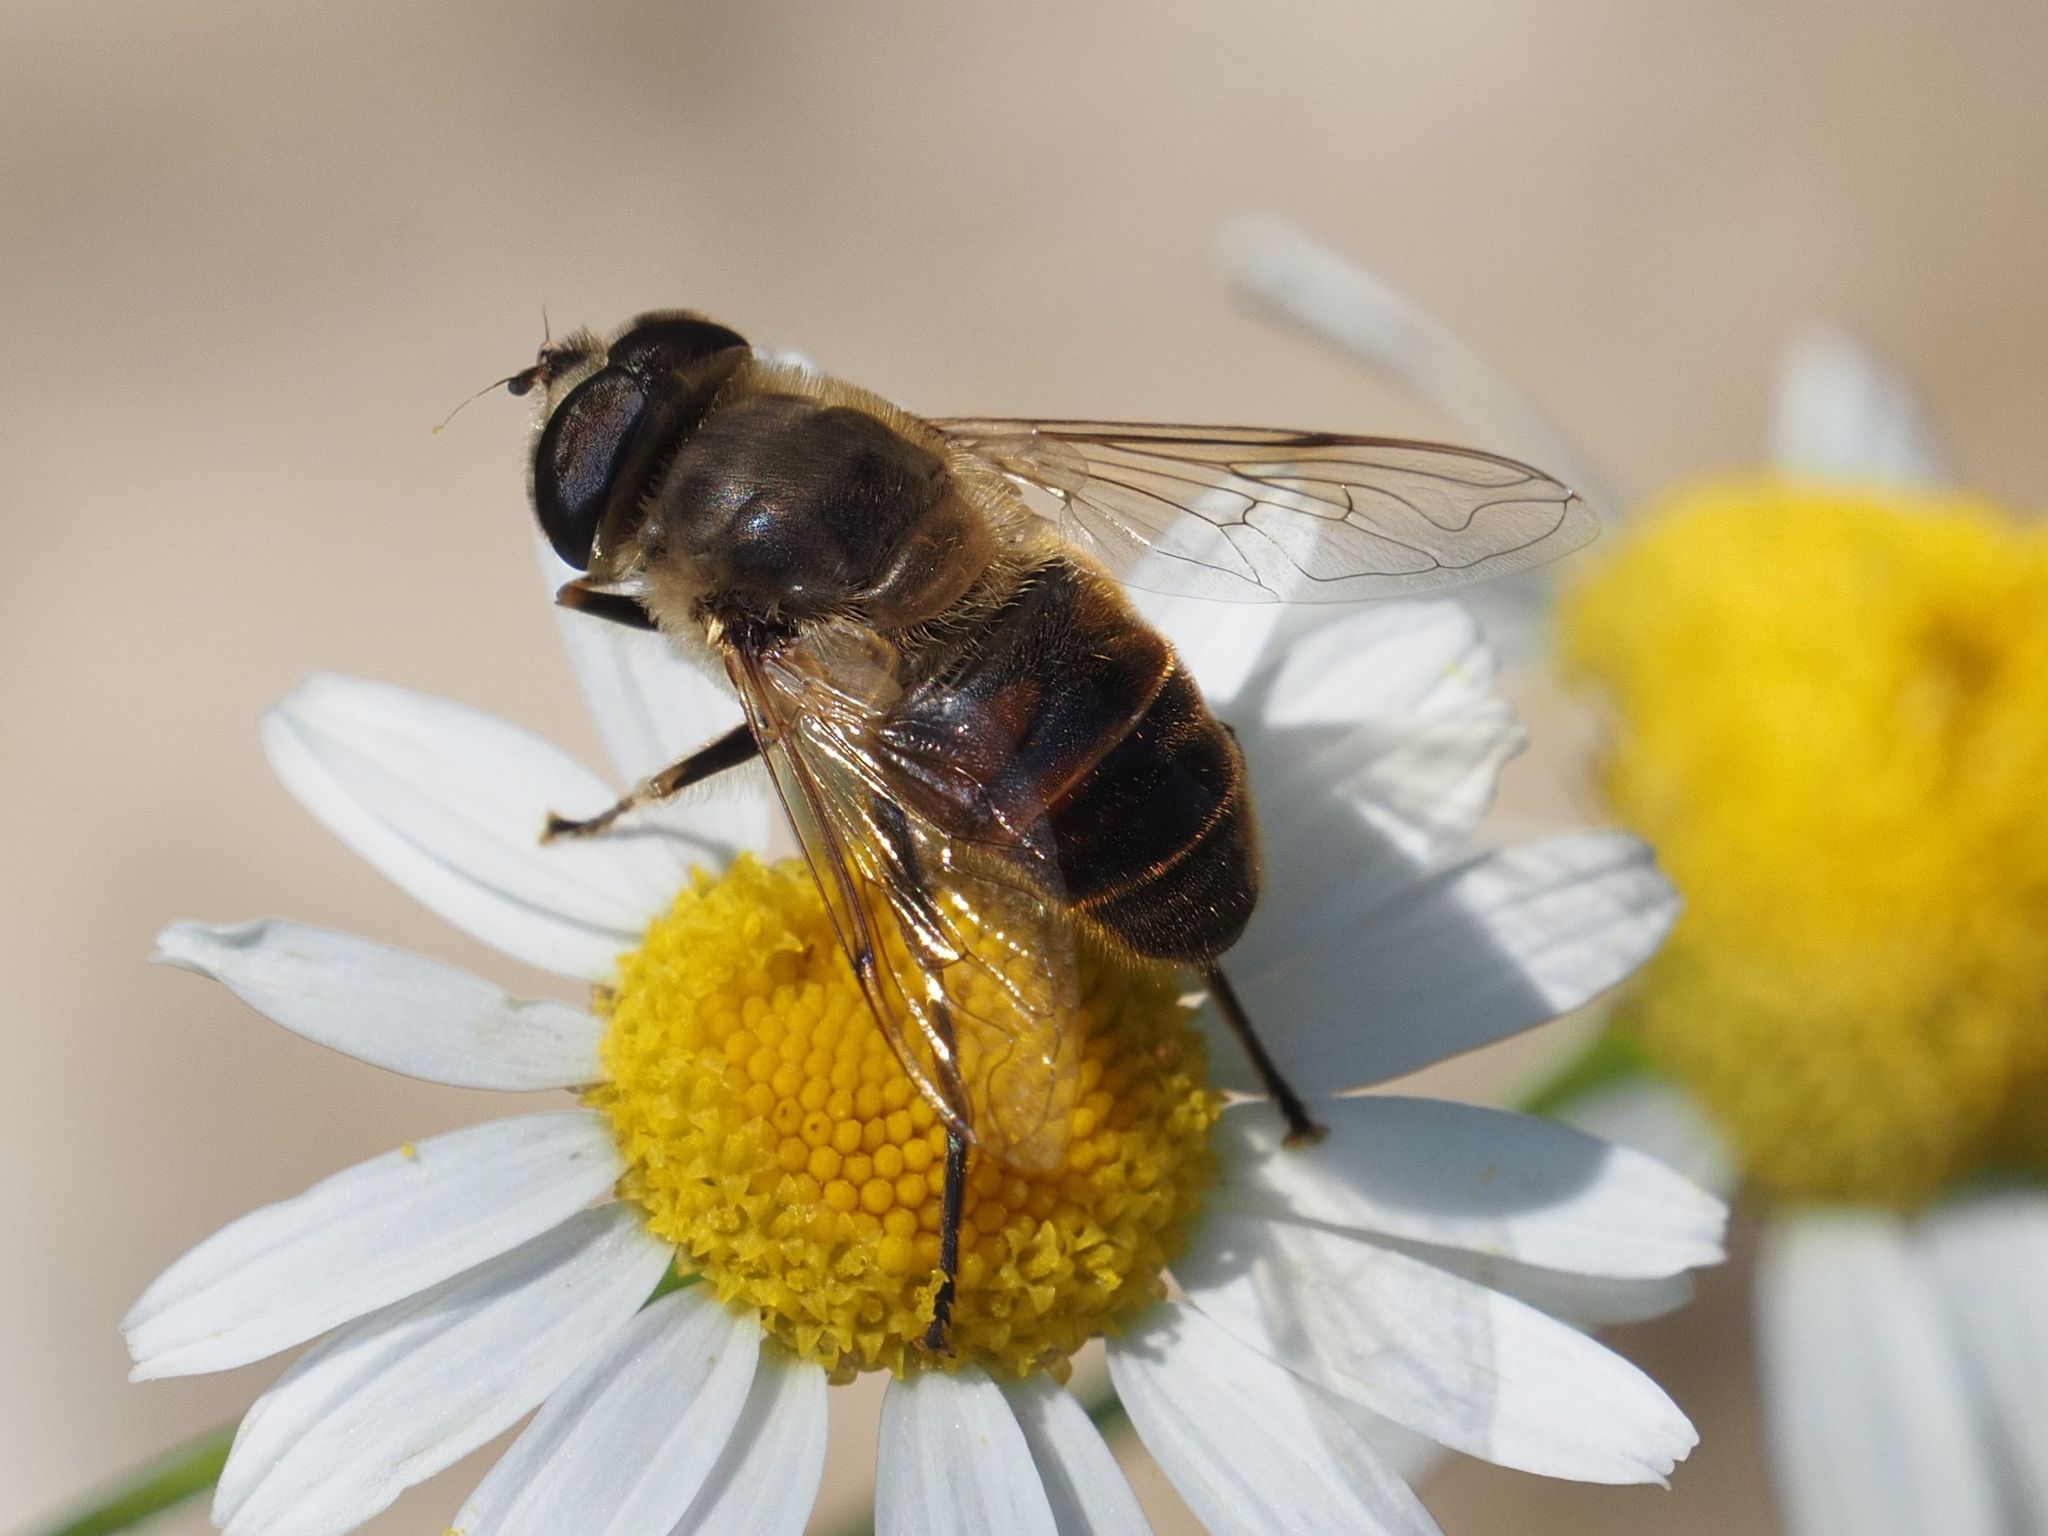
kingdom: Animalia
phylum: Arthropoda
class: Insecta
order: Diptera
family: Syrphidae
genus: Eristalis
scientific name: Eristalis tenax
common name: Drone fly
